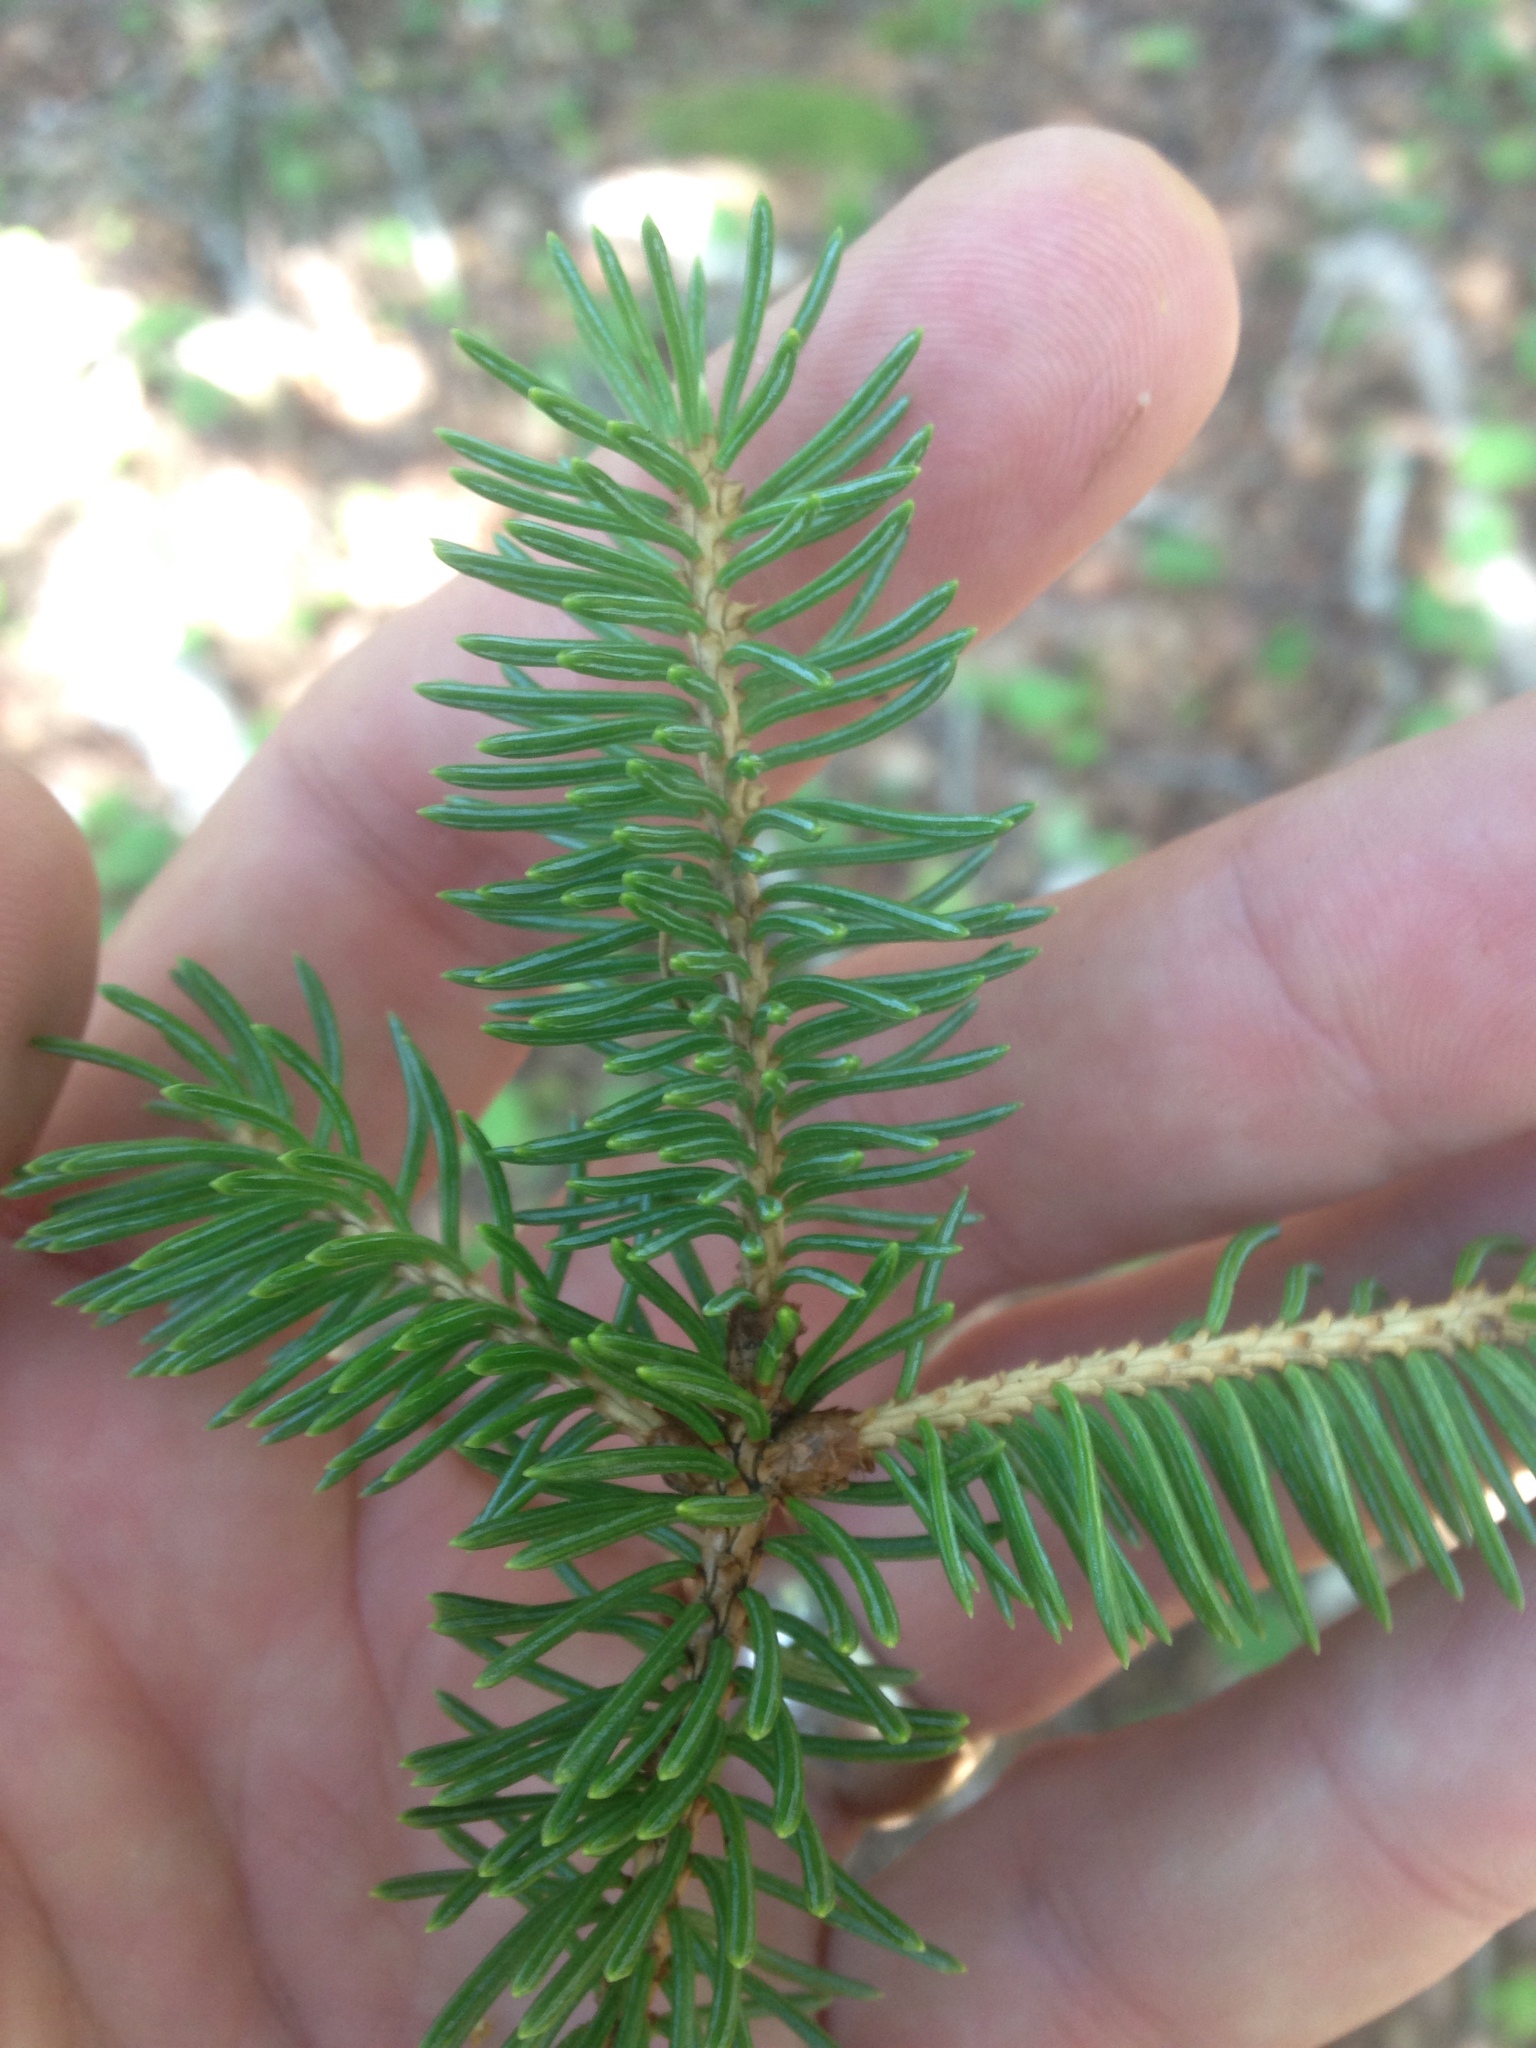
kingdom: Plantae
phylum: Tracheophyta
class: Pinopsida
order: Pinales
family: Pinaceae
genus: Picea
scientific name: Picea glauca
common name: White spruce
